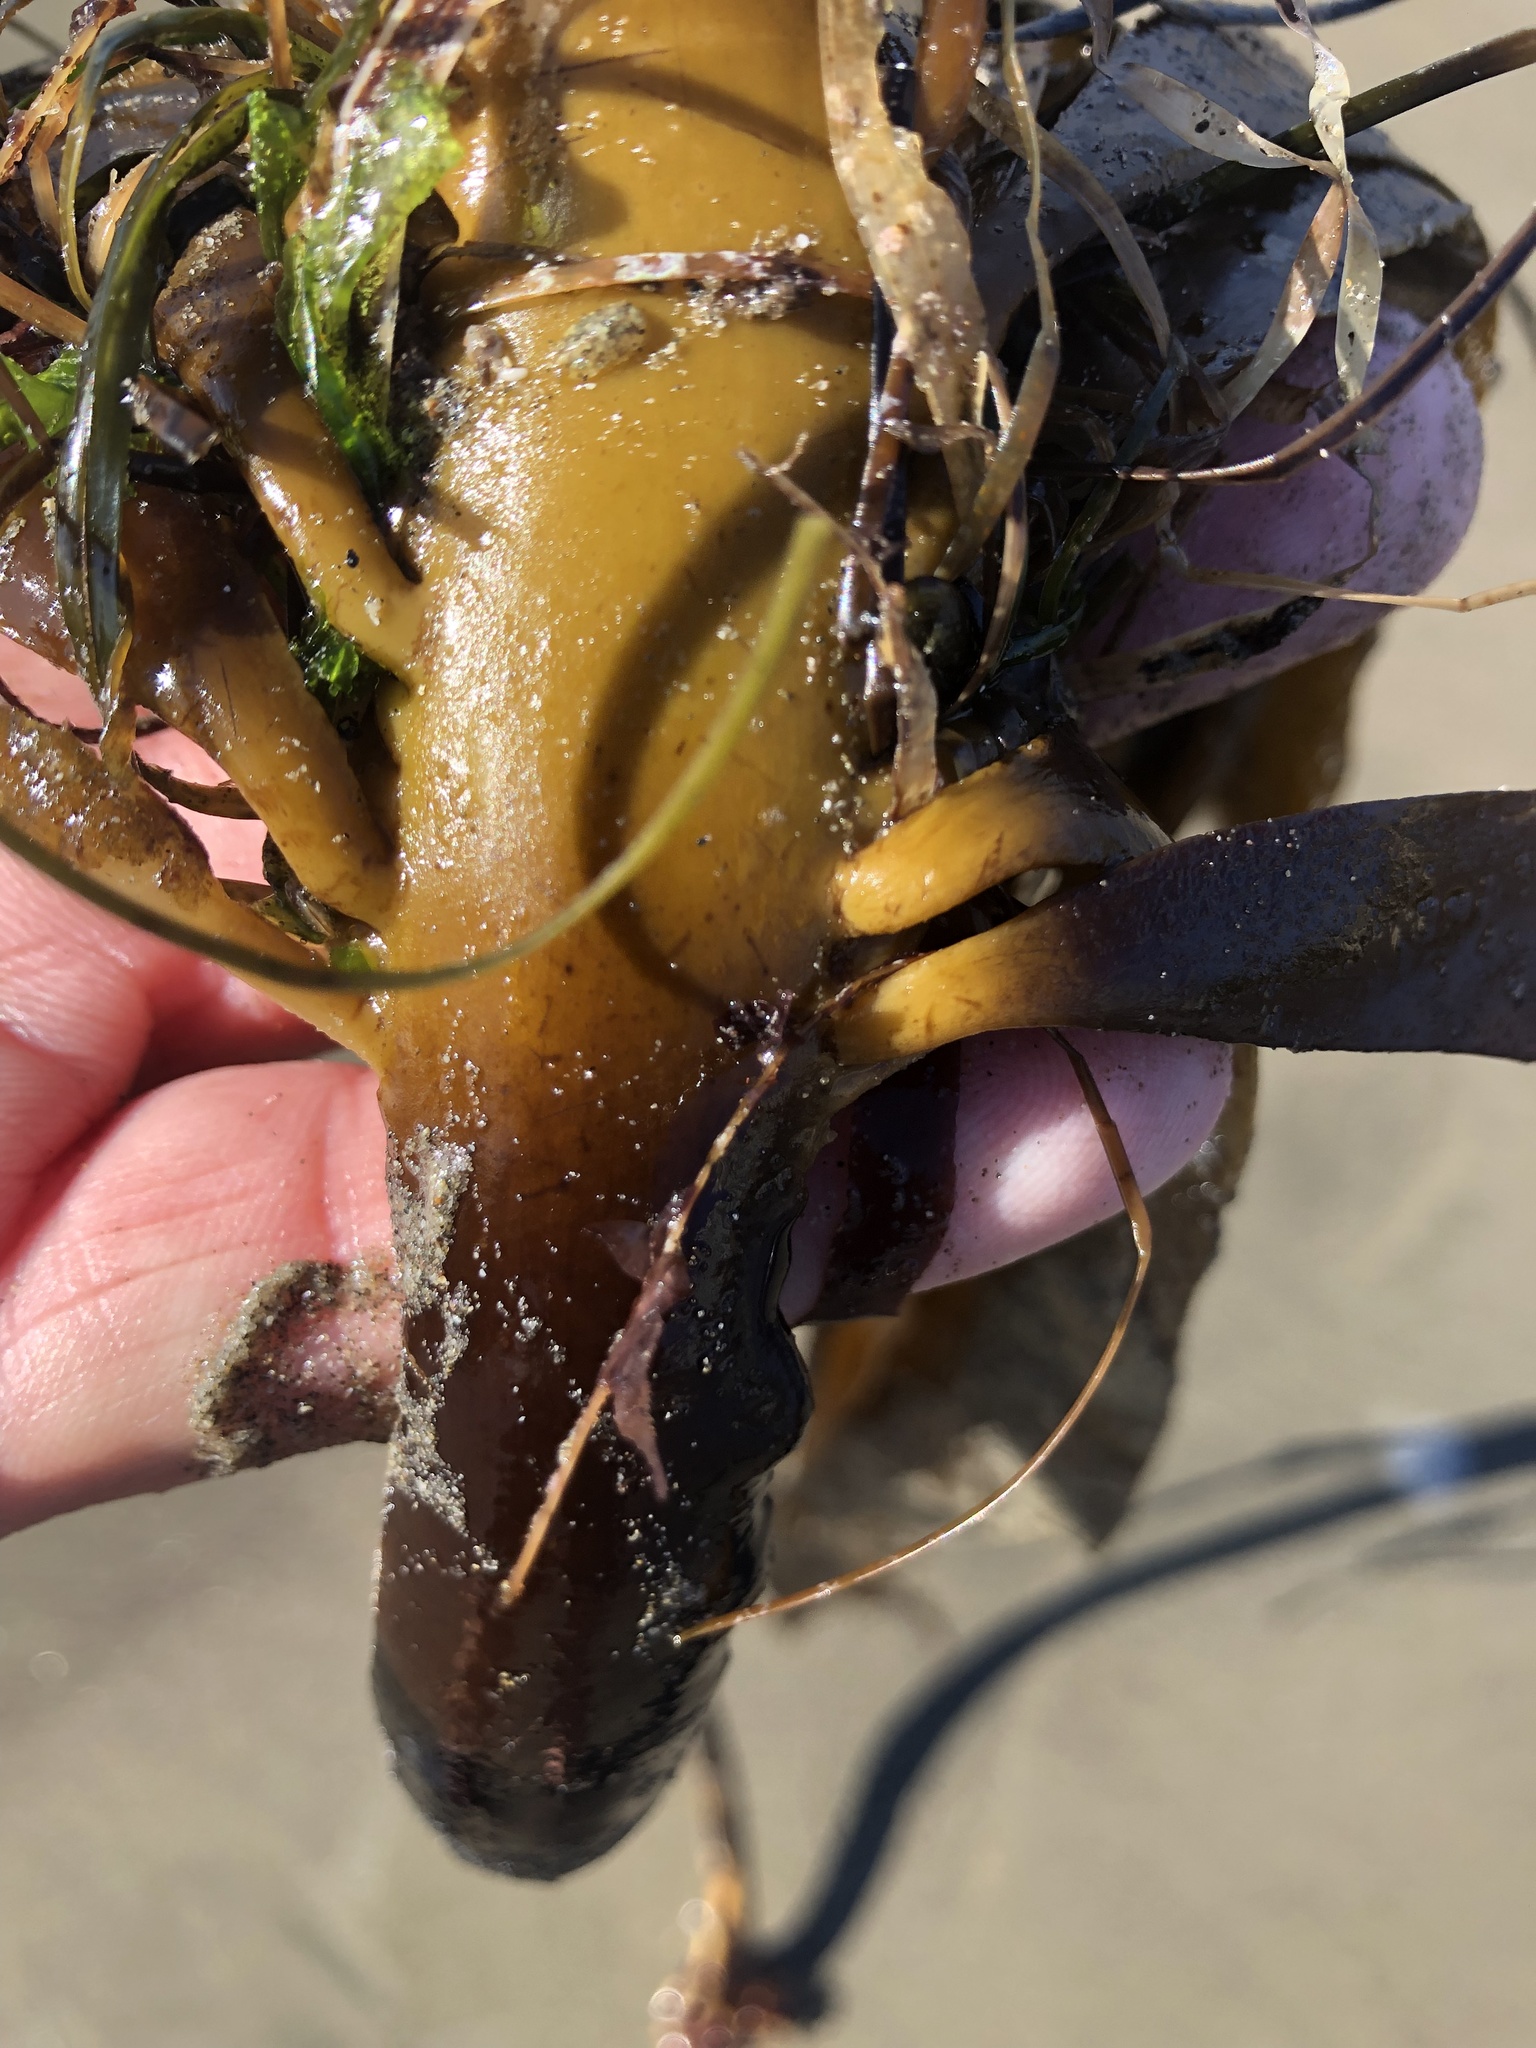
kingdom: Chromista
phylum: Ochrophyta
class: Phaeophyceae
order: Laminariales
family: Alariaceae
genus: Pterygophora
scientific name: Pterygophora californica
